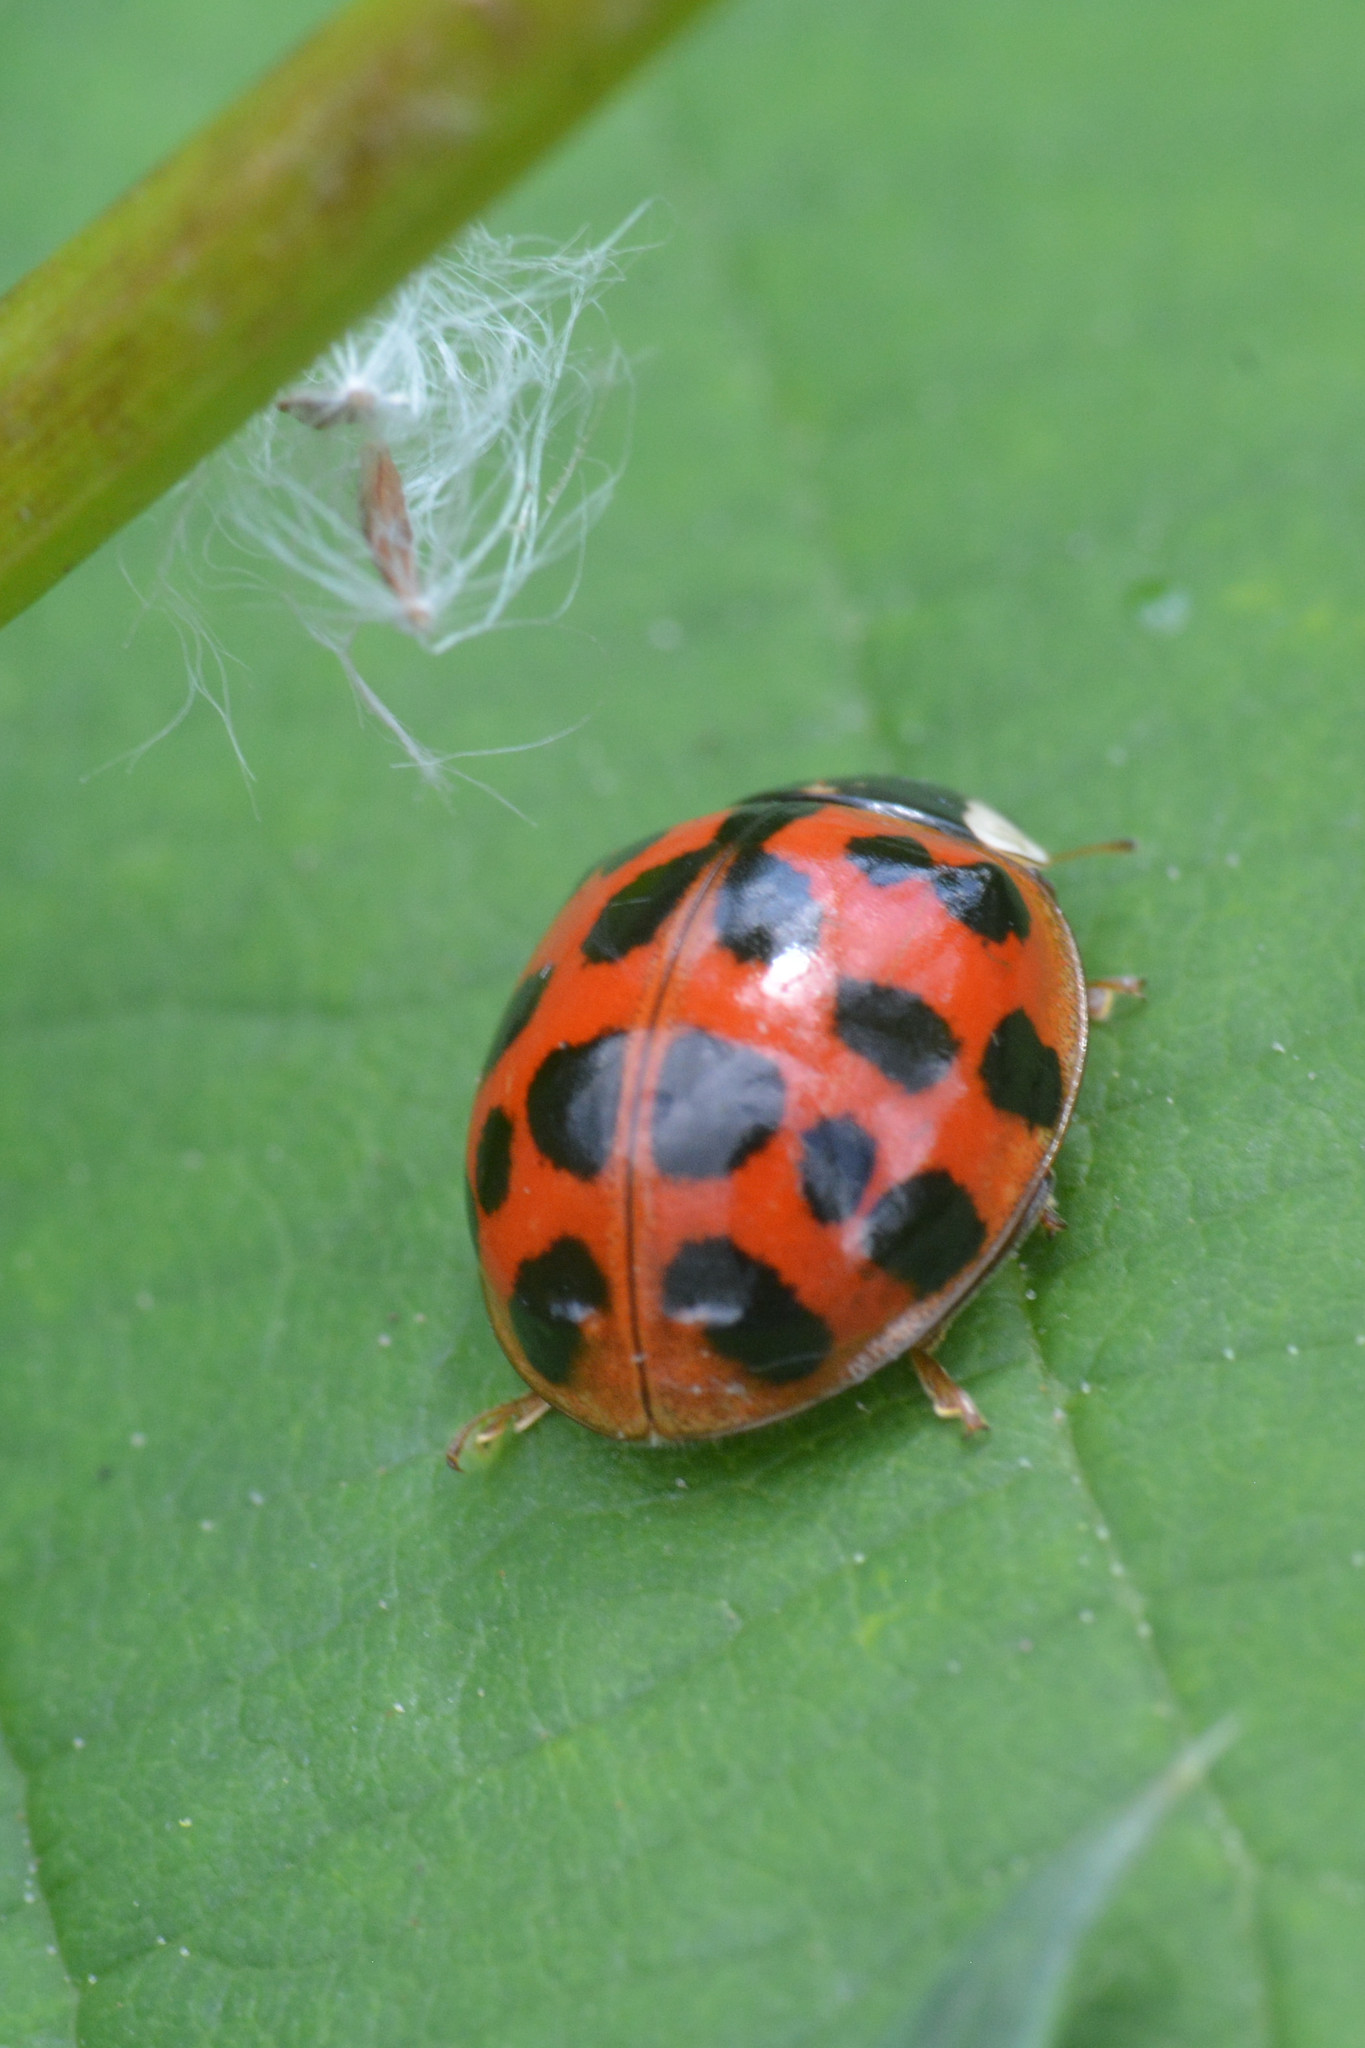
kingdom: Animalia
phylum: Arthropoda
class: Insecta
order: Coleoptera
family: Coccinellidae
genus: Harmonia
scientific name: Harmonia axyridis
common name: Harlequin ladybird
